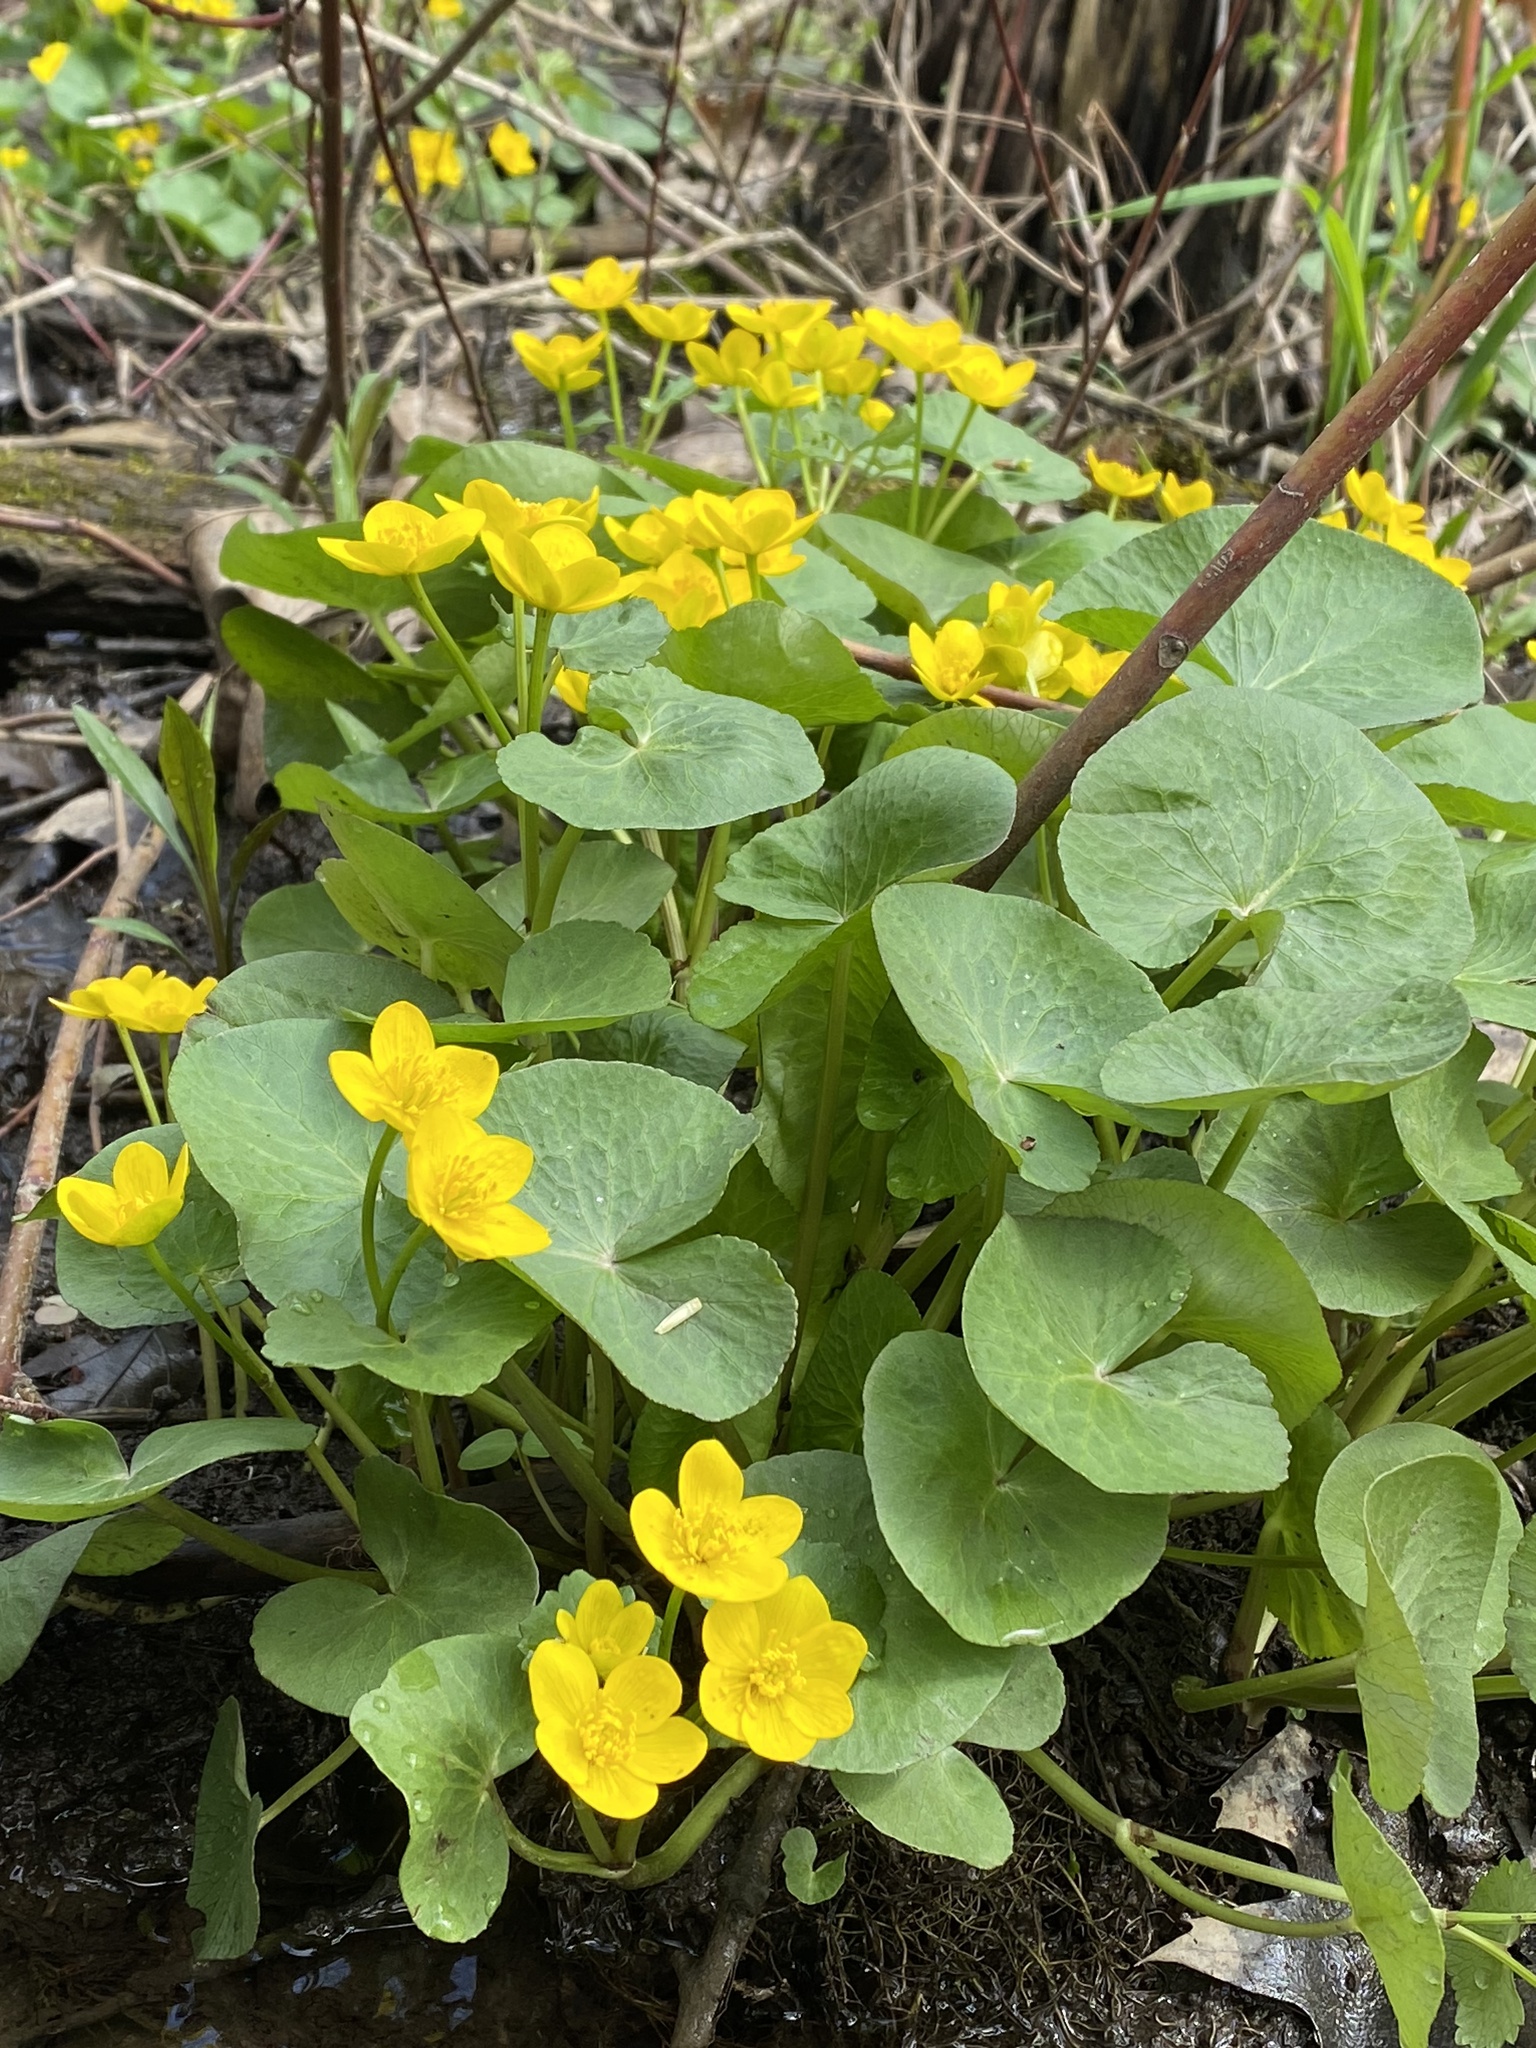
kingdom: Plantae
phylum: Tracheophyta
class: Magnoliopsida
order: Ranunculales
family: Ranunculaceae
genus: Caltha
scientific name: Caltha palustris
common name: Marsh marigold
